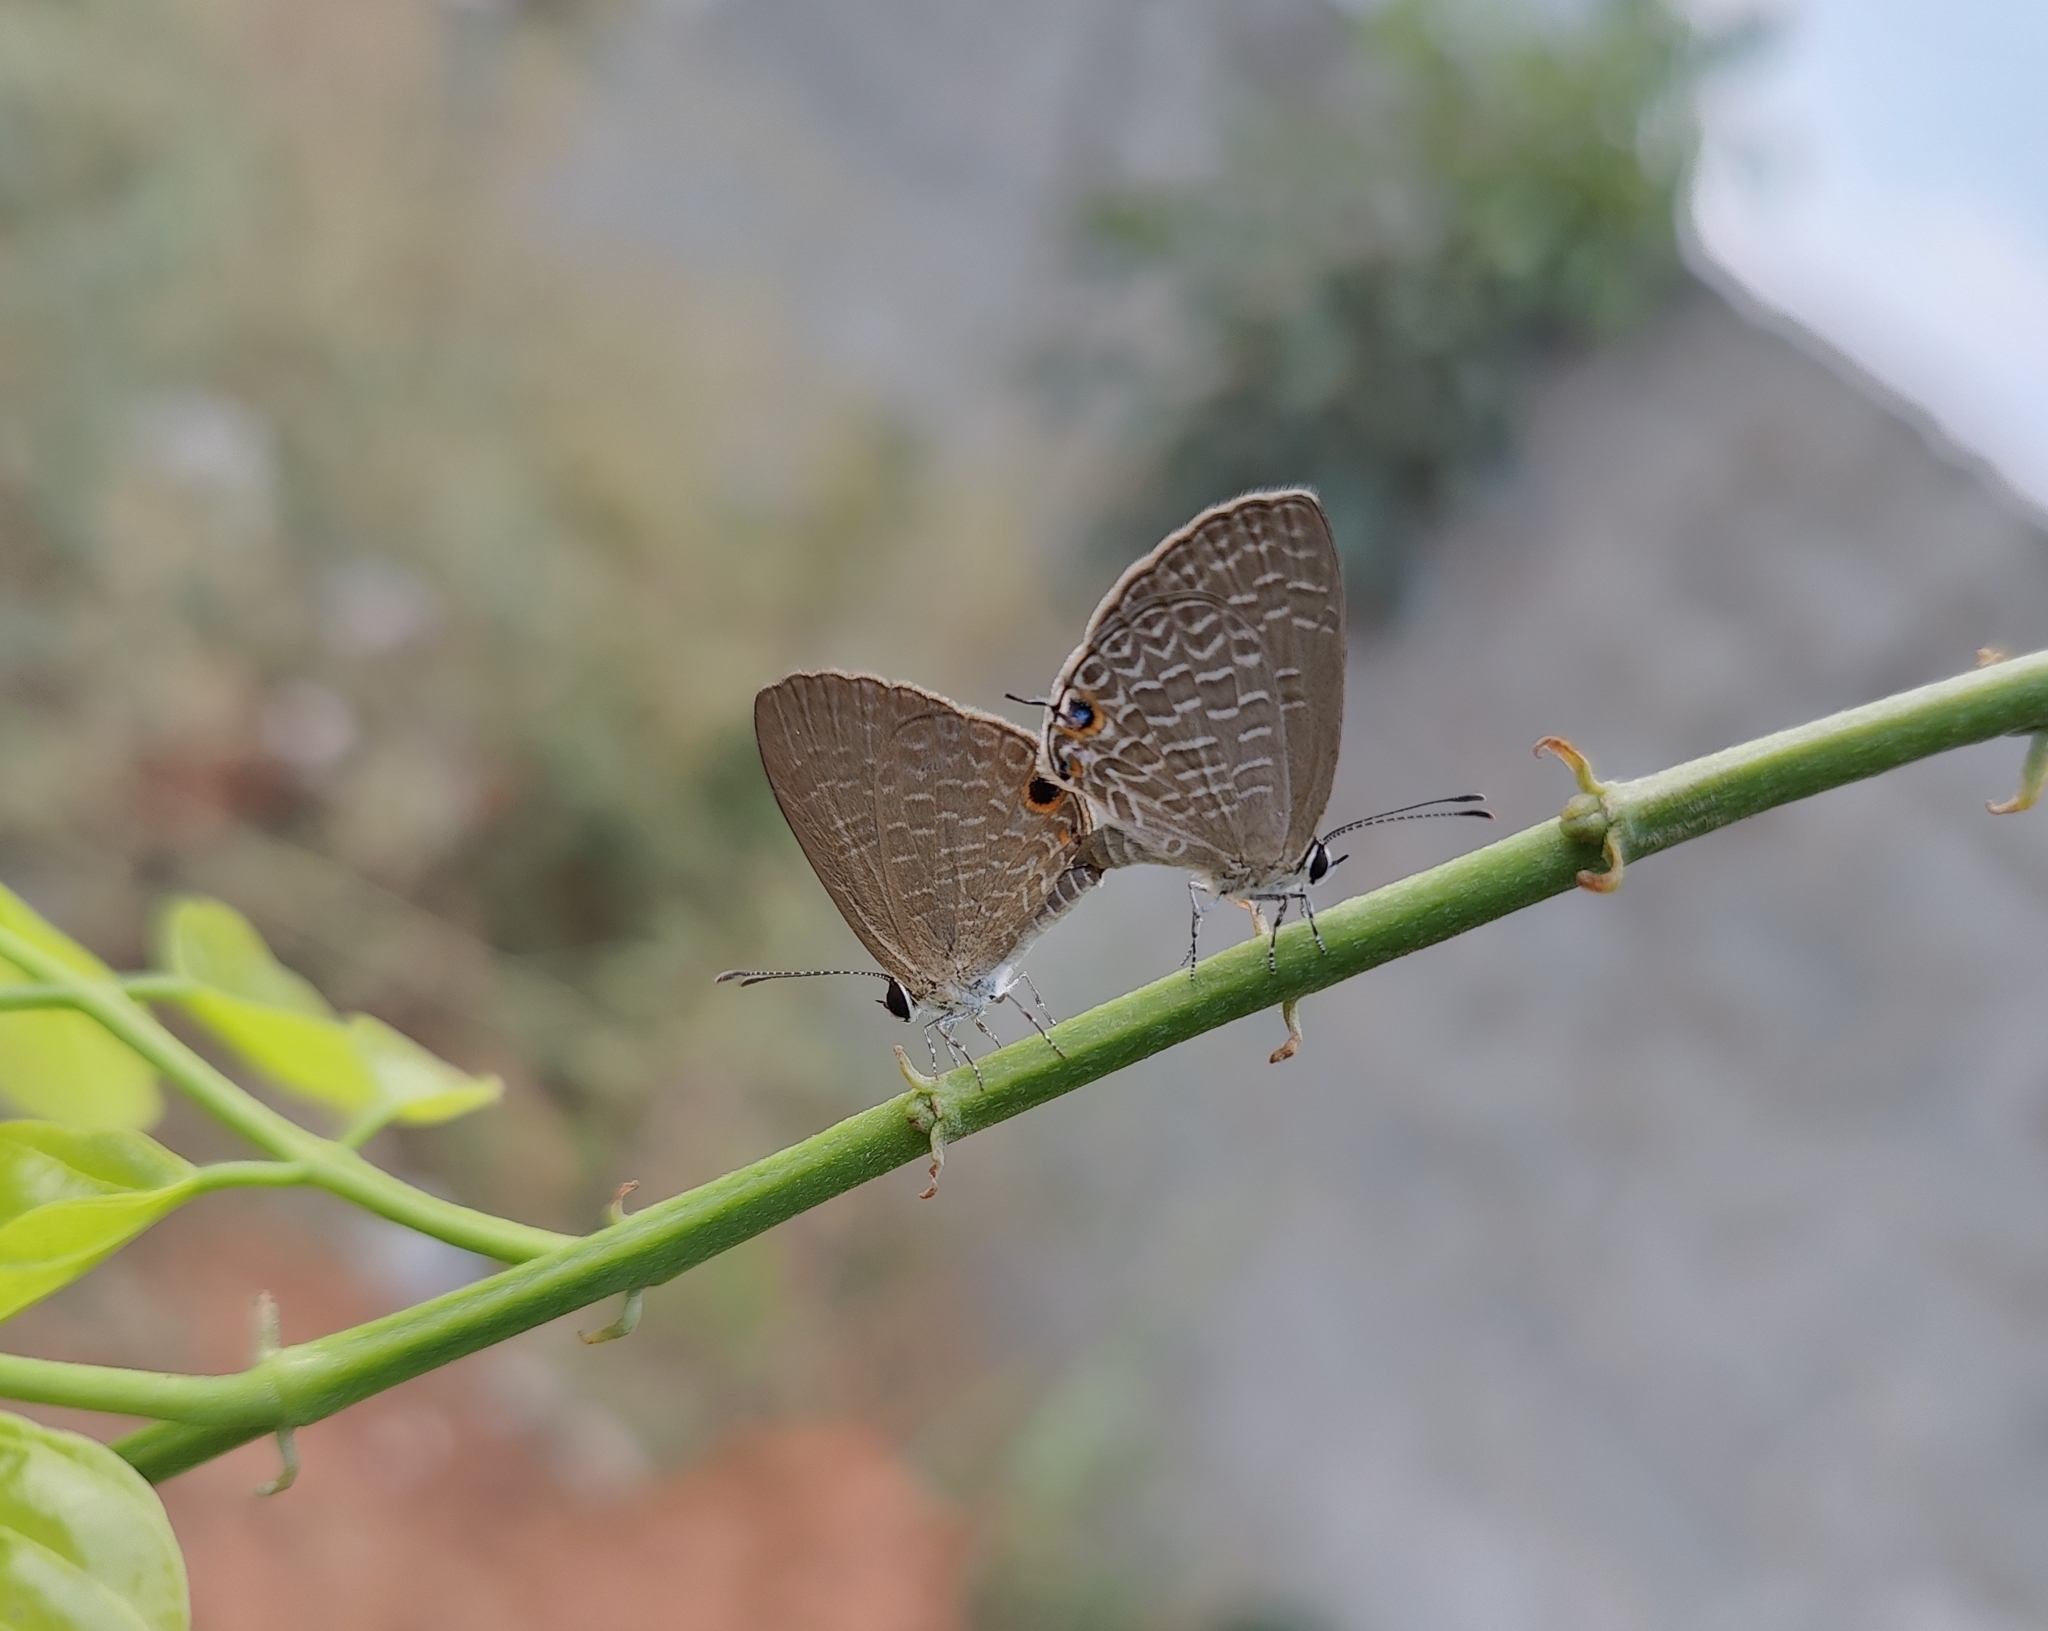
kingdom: Animalia
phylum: Arthropoda
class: Insecta
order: Lepidoptera
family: Lycaenidae
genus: Jamides
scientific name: Jamides bochus
